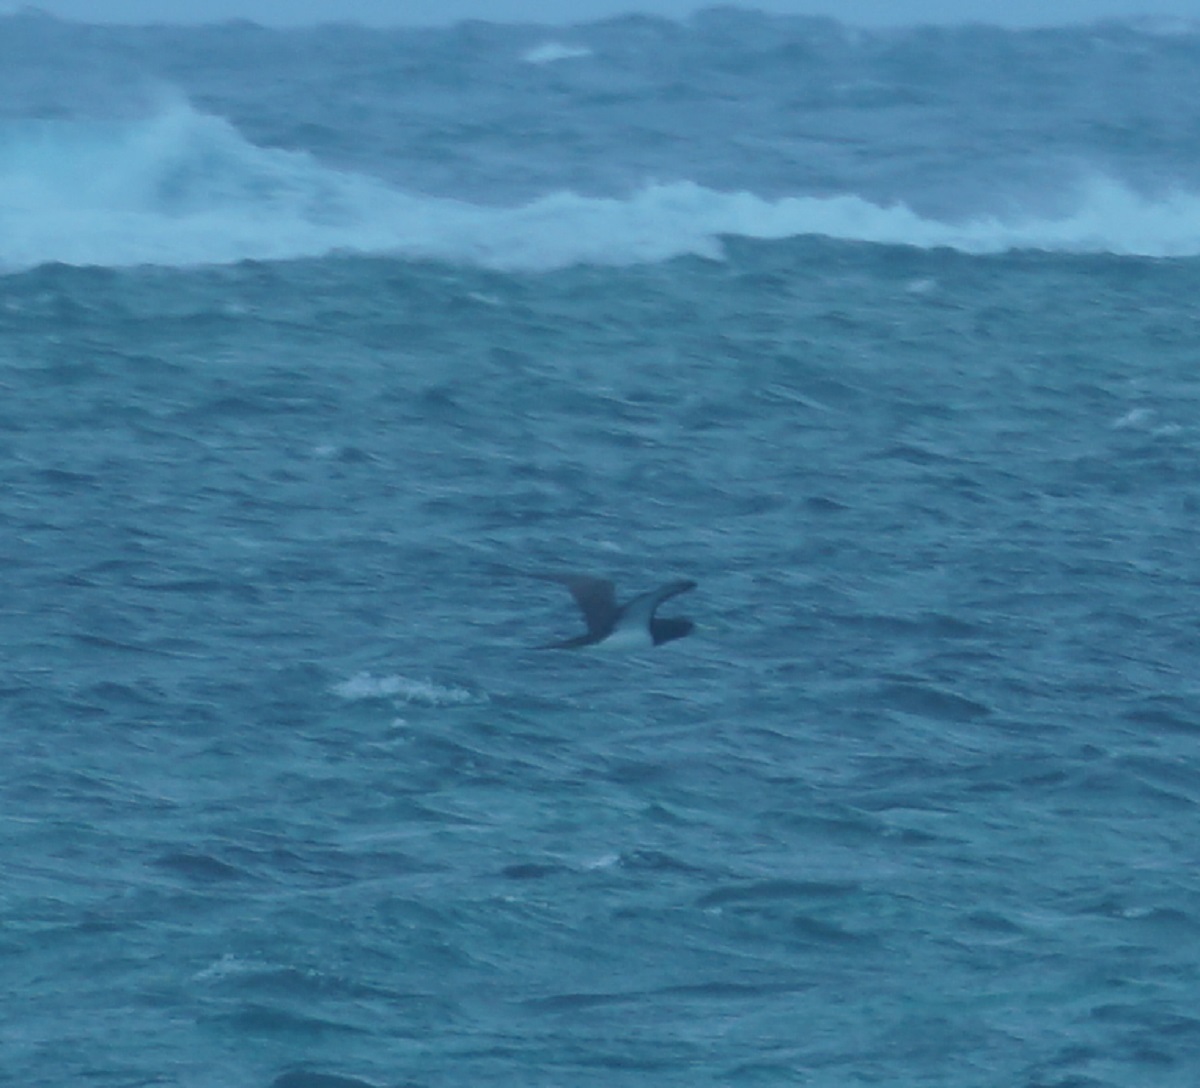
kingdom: Animalia
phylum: Chordata
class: Aves
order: Suliformes
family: Sulidae
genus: Sula
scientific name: Sula leucogaster
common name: Brown booby
